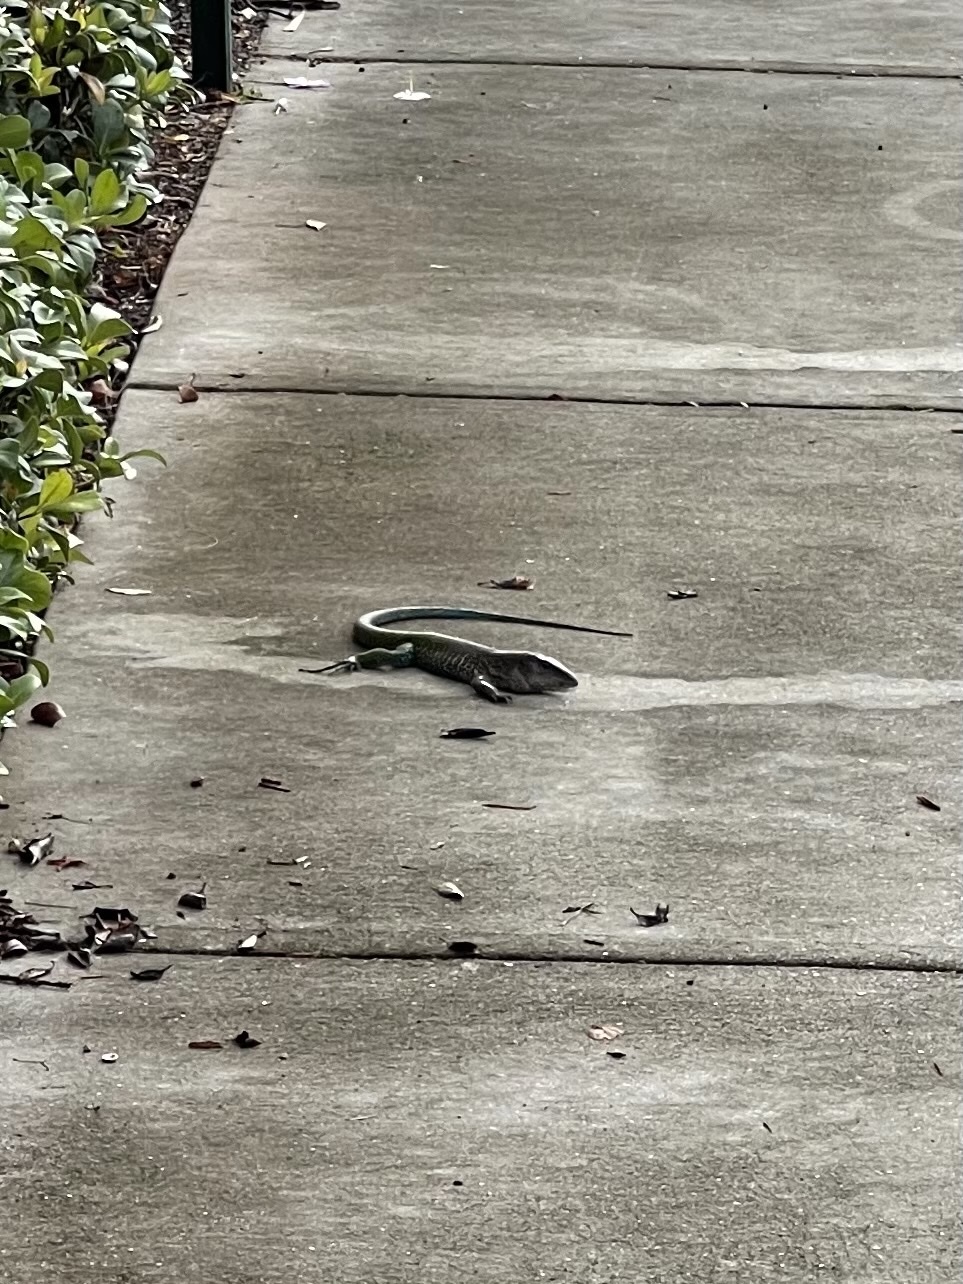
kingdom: Animalia
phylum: Chordata
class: Squamata
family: Teiidae
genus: Ameiva
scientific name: Ameiva ameiva
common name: Giant ameiva
